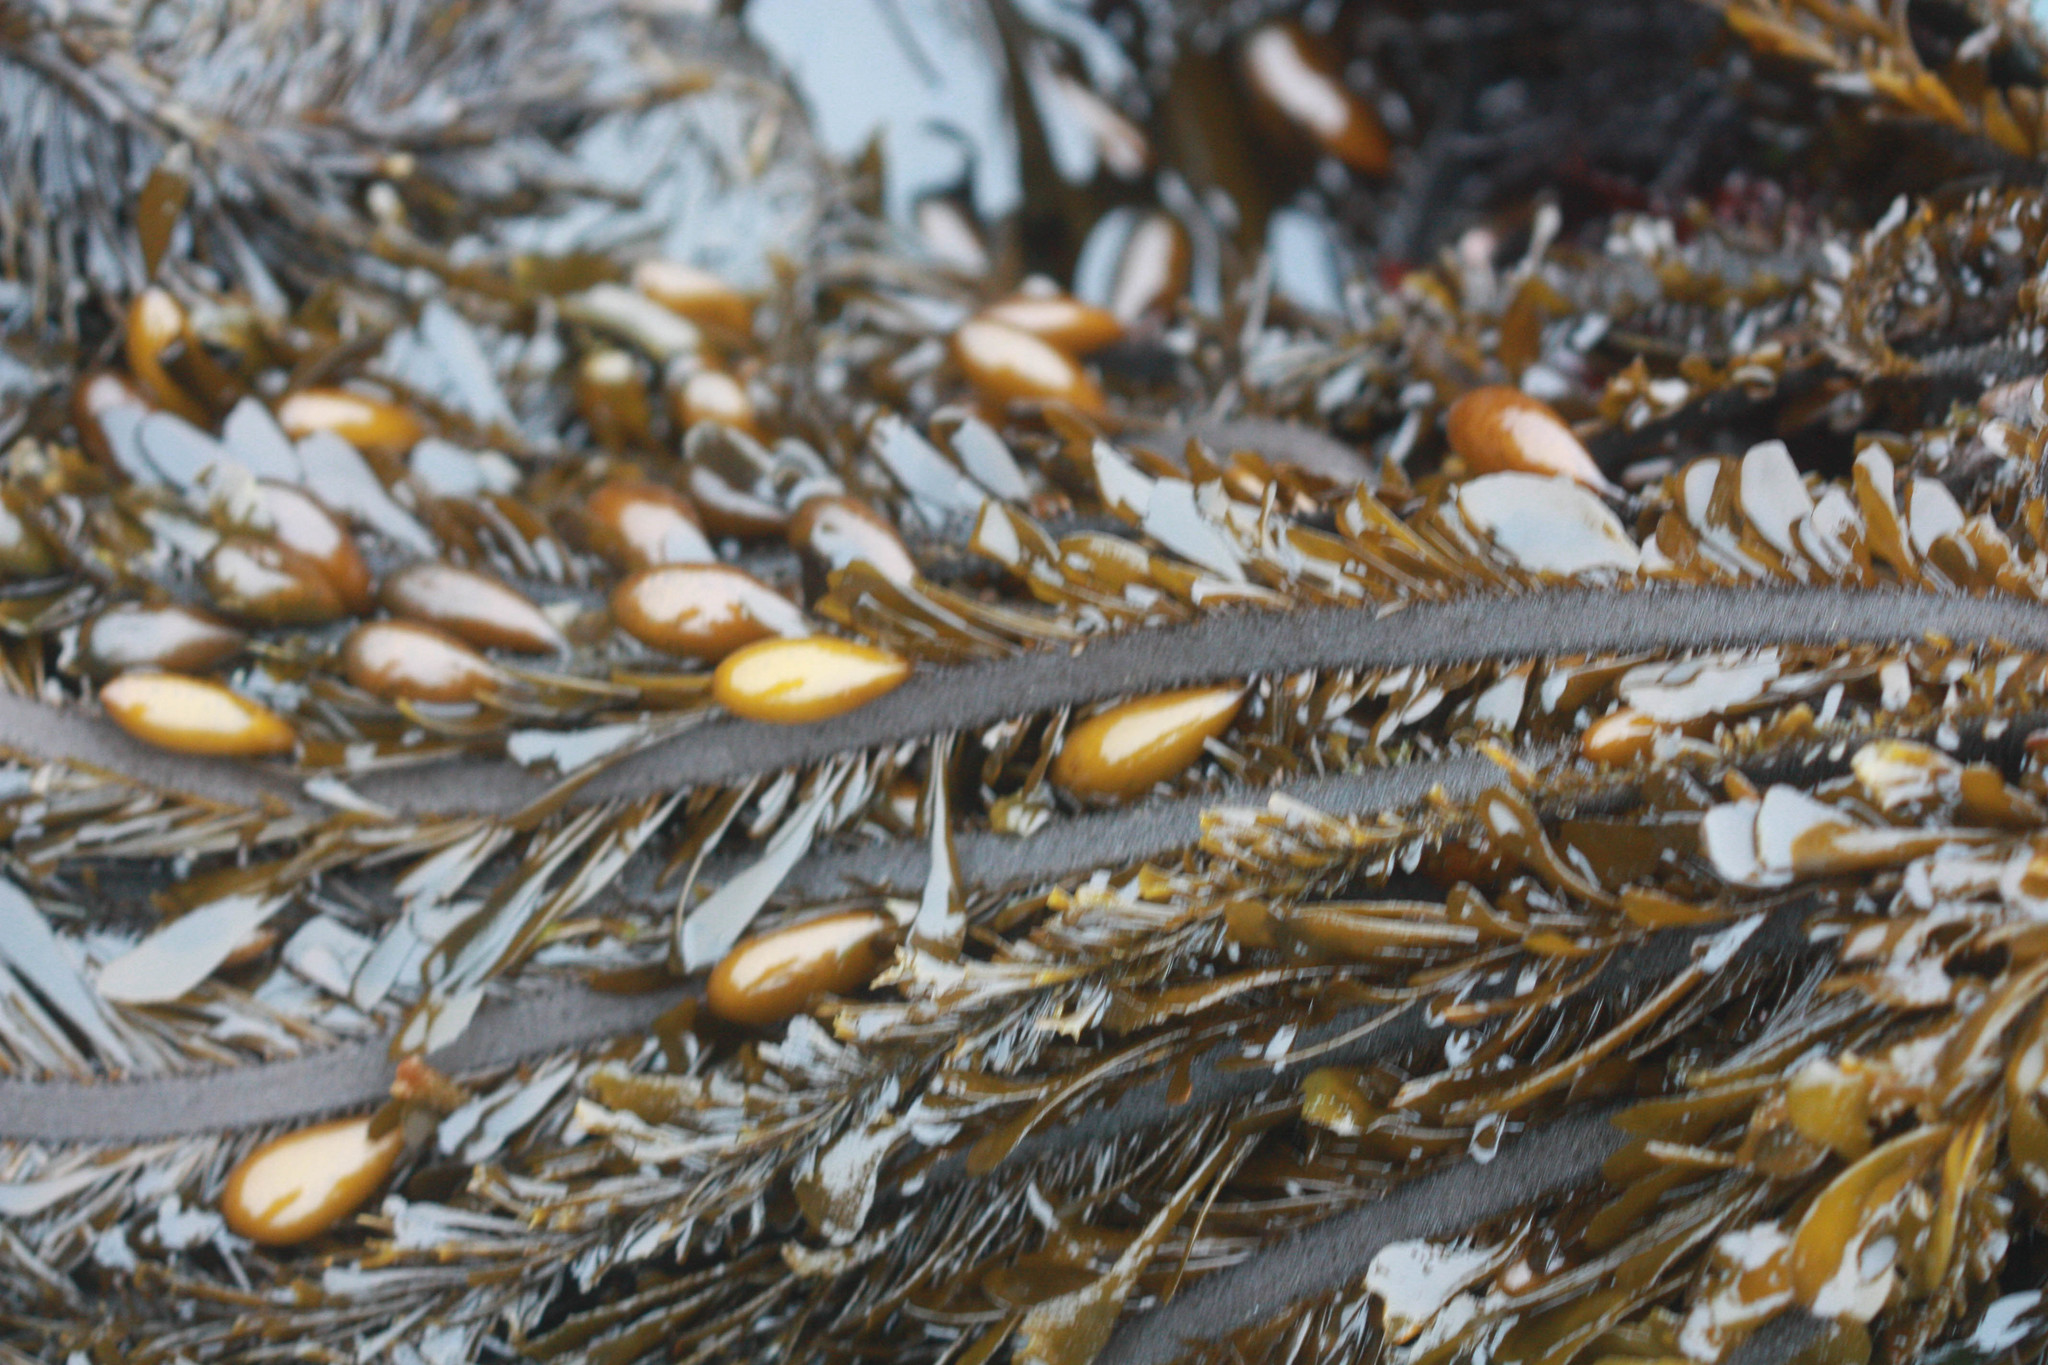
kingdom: Chromista
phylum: Ochrophyta
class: Phaeophyceae
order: Laminariales
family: Lessoniaceae
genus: Egregia
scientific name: Egregia menziesii
